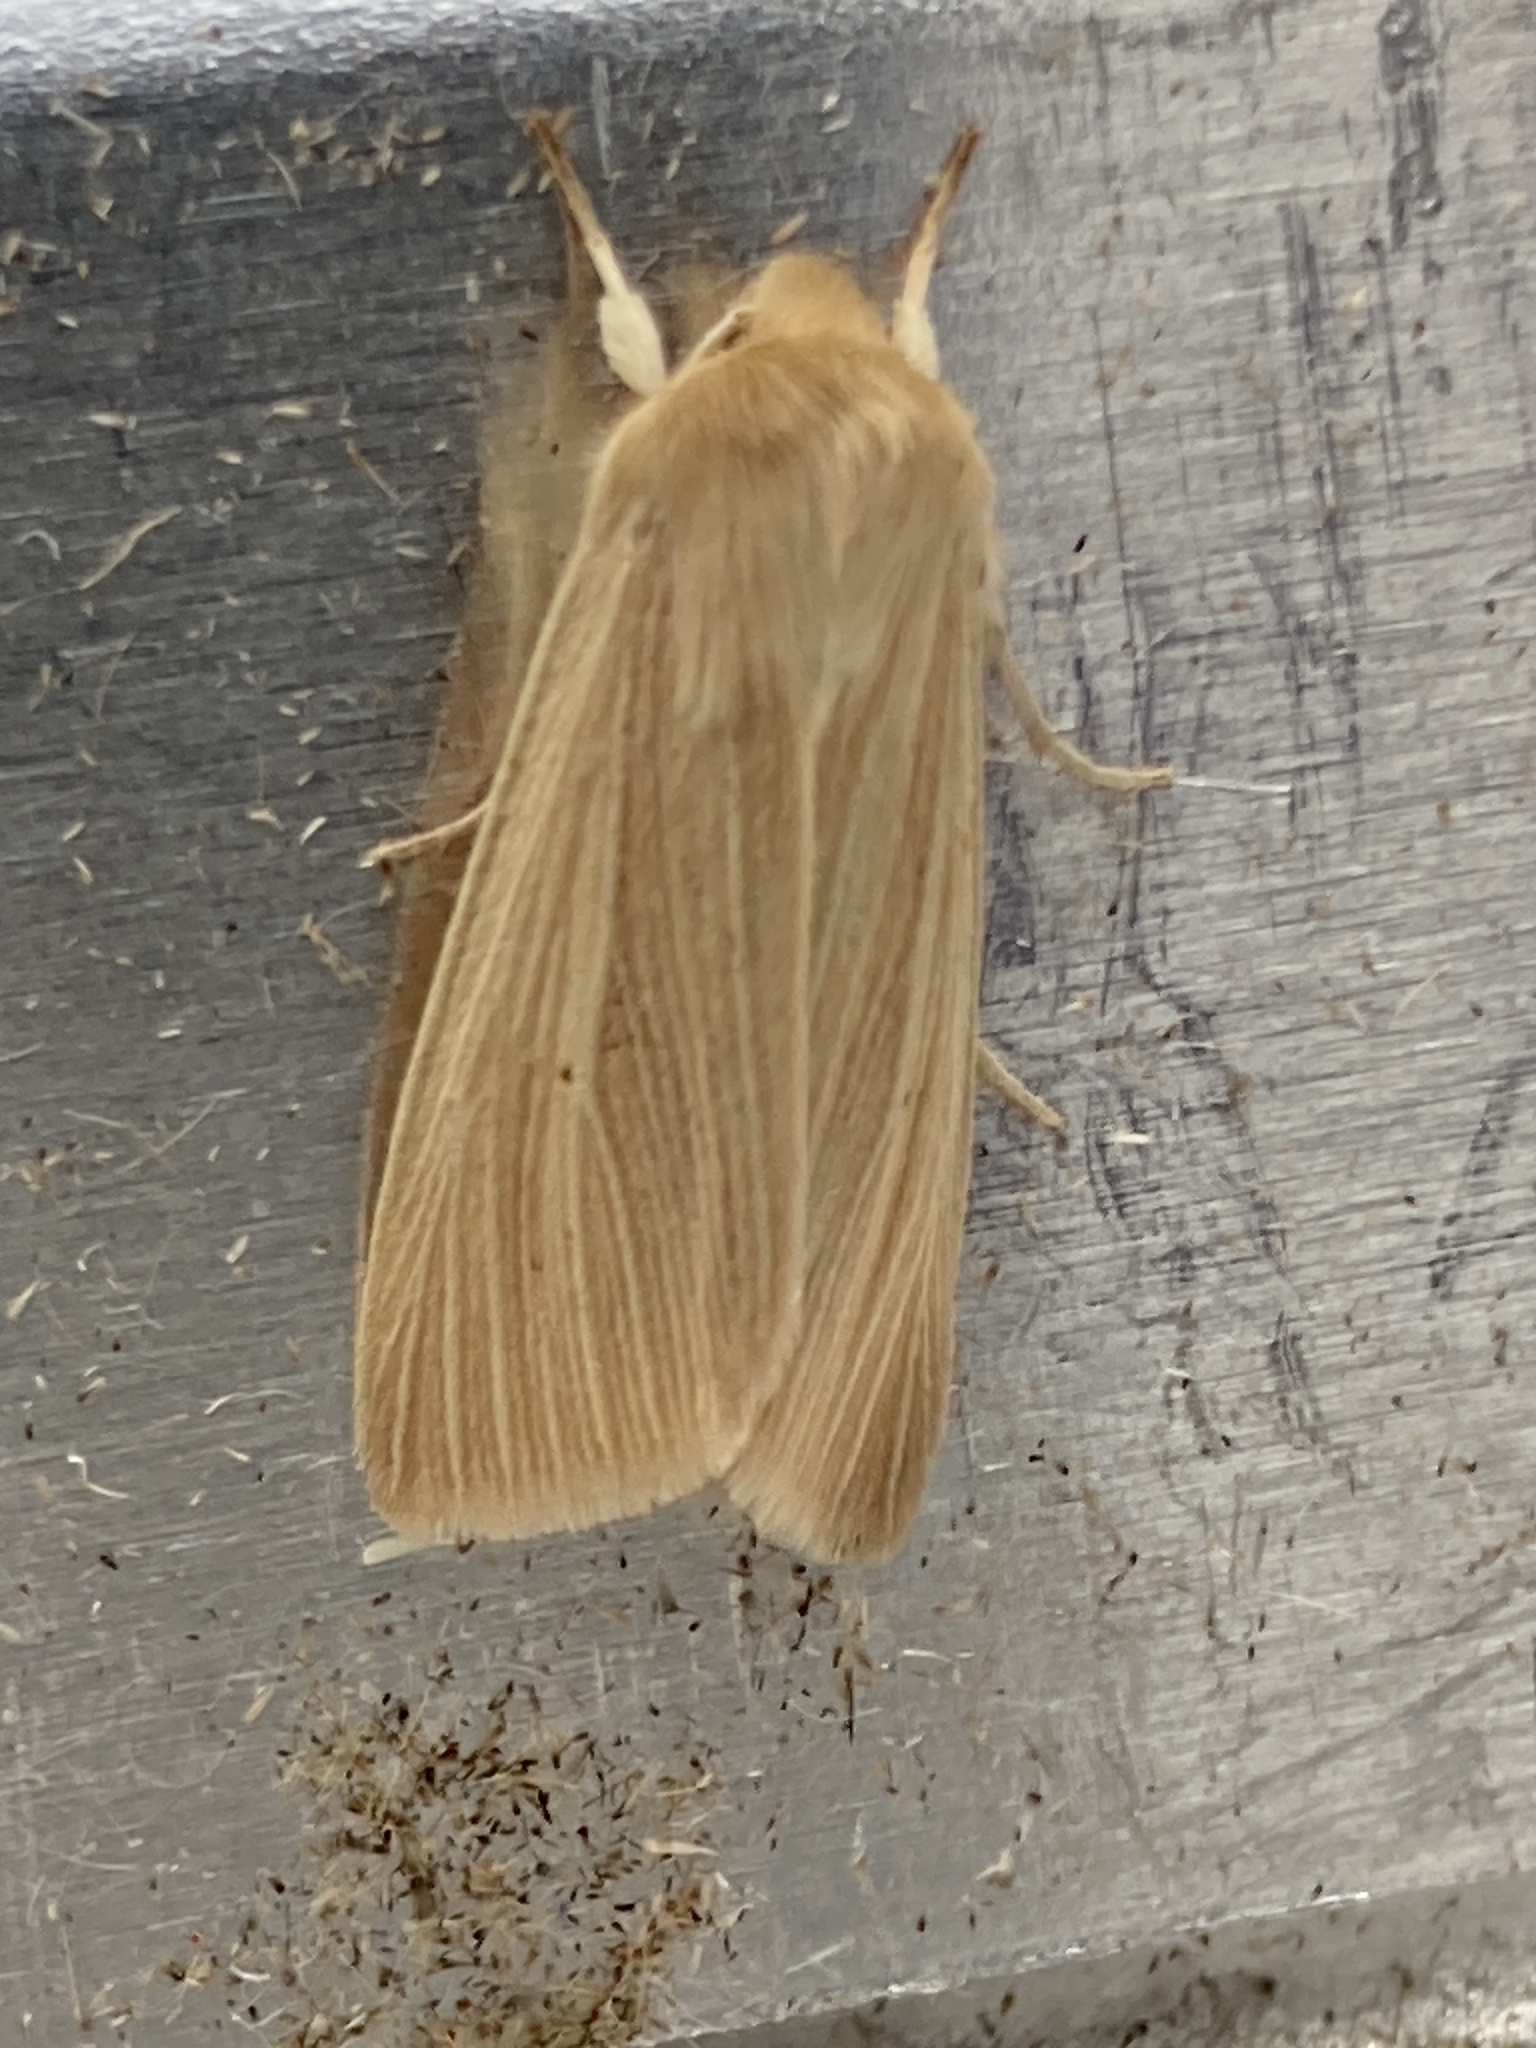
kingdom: Animalia
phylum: Arthropoda
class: Insecta
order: Lepidoptera
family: Noctuidae
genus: Mythimna
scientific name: Mythimna pallens
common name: Common wainscot
